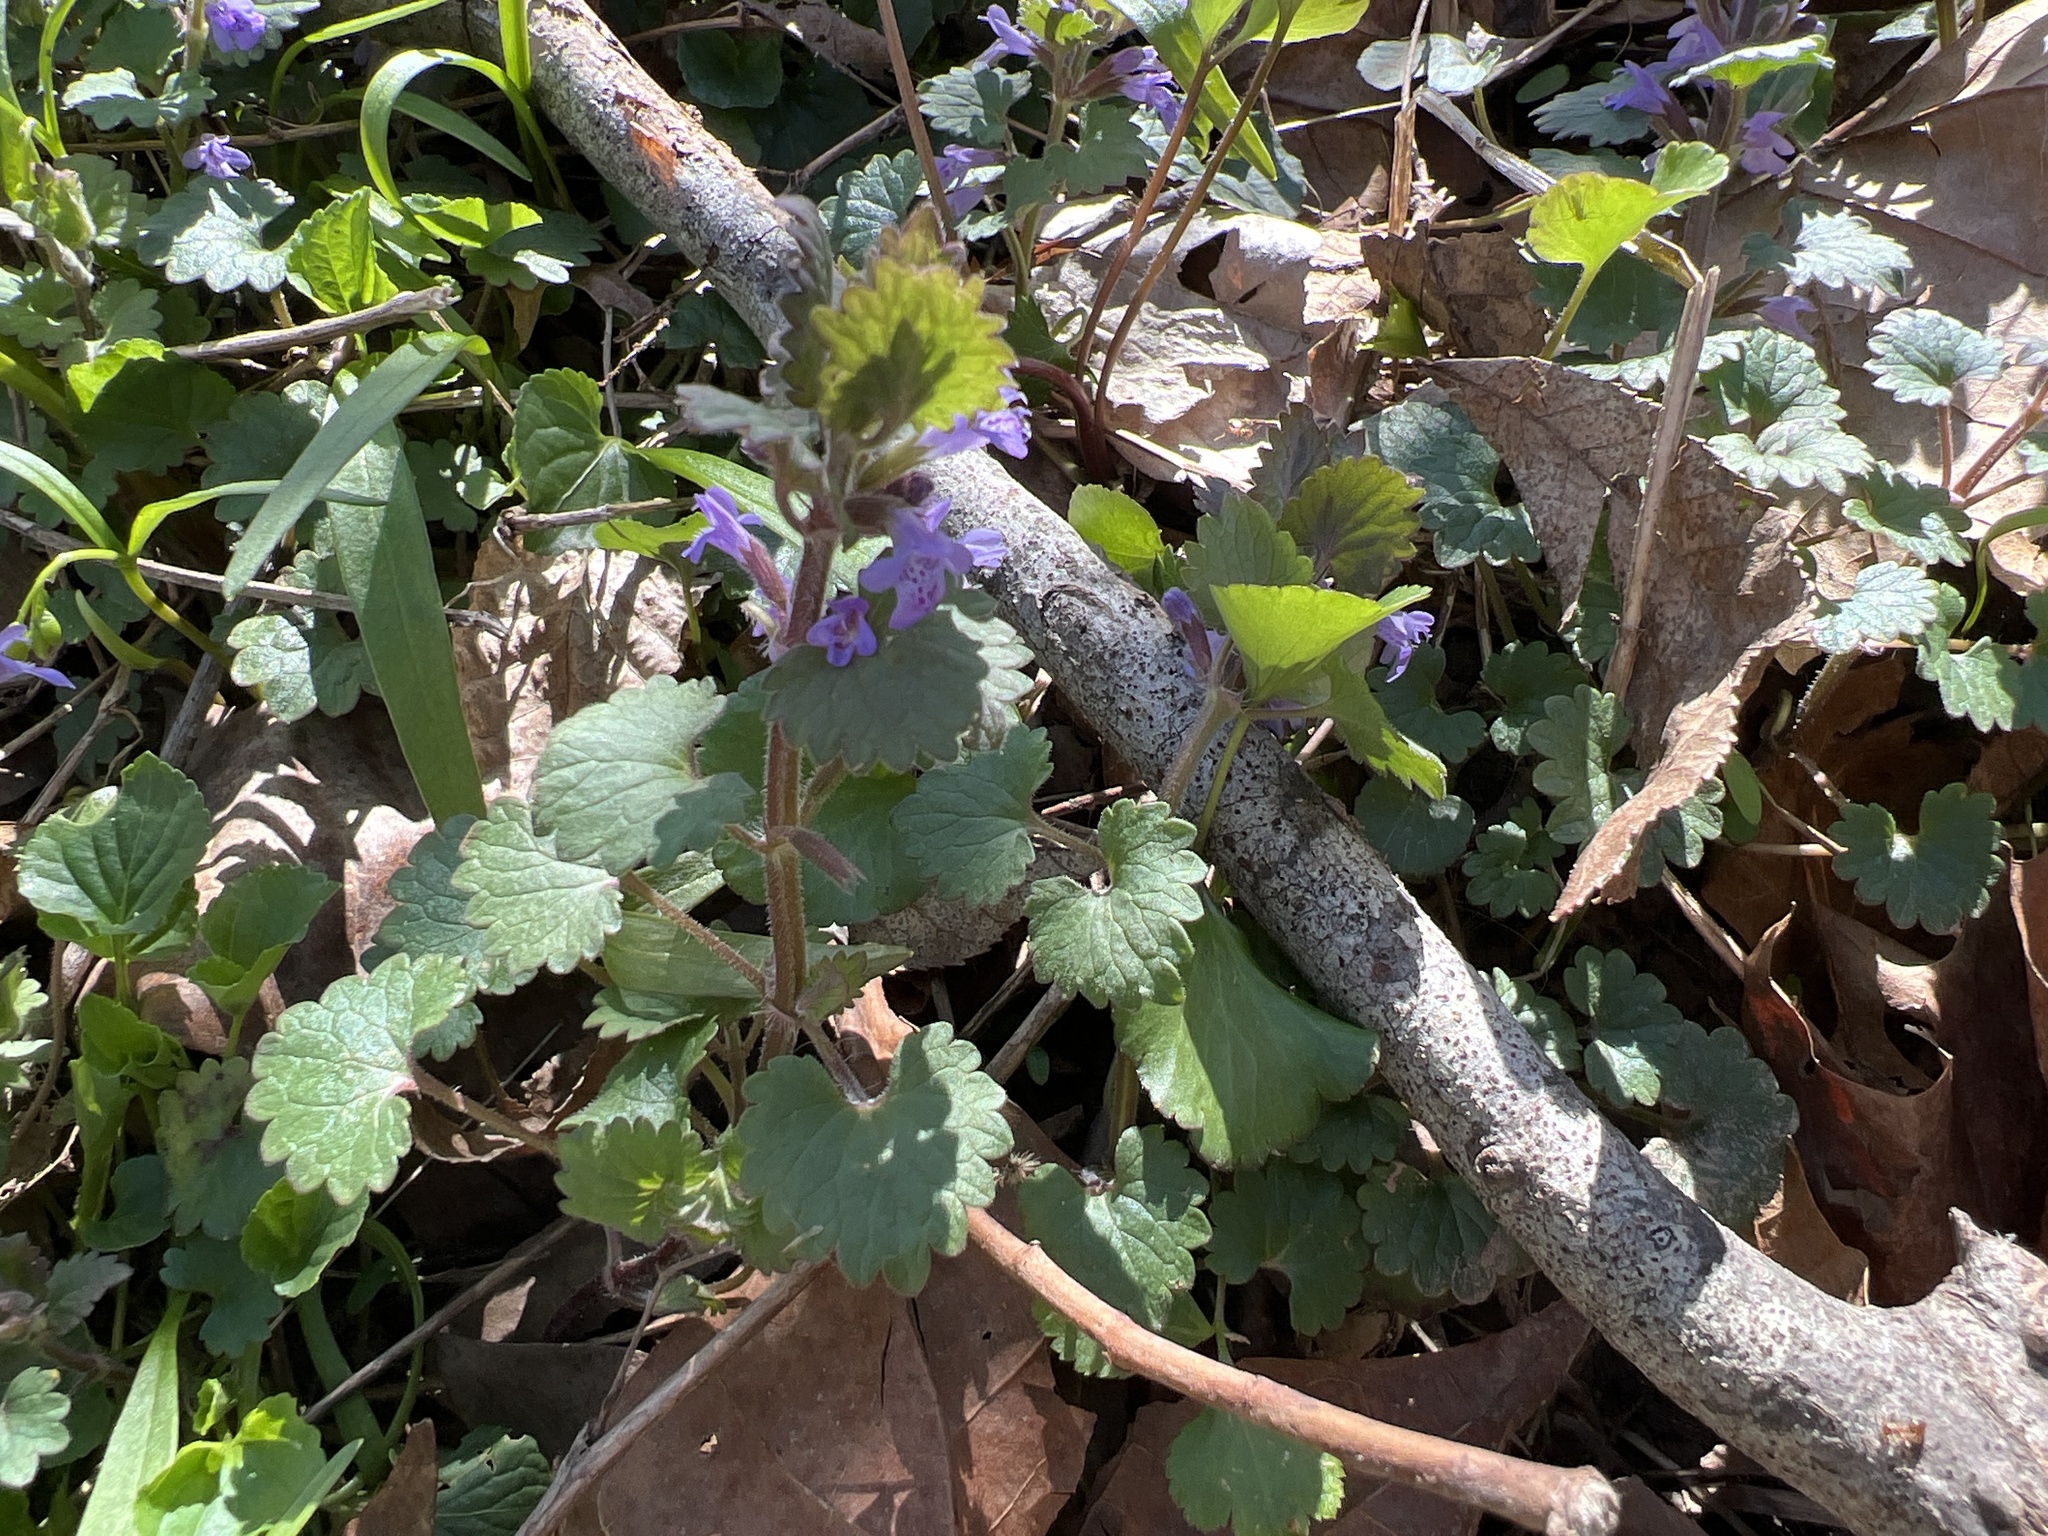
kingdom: Plantae
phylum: Tracheophyta
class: Magnoliopsida
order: Lamiales
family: Lamiaceae
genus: Glechoma
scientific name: Glechoma hederacea
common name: Ground ivy
